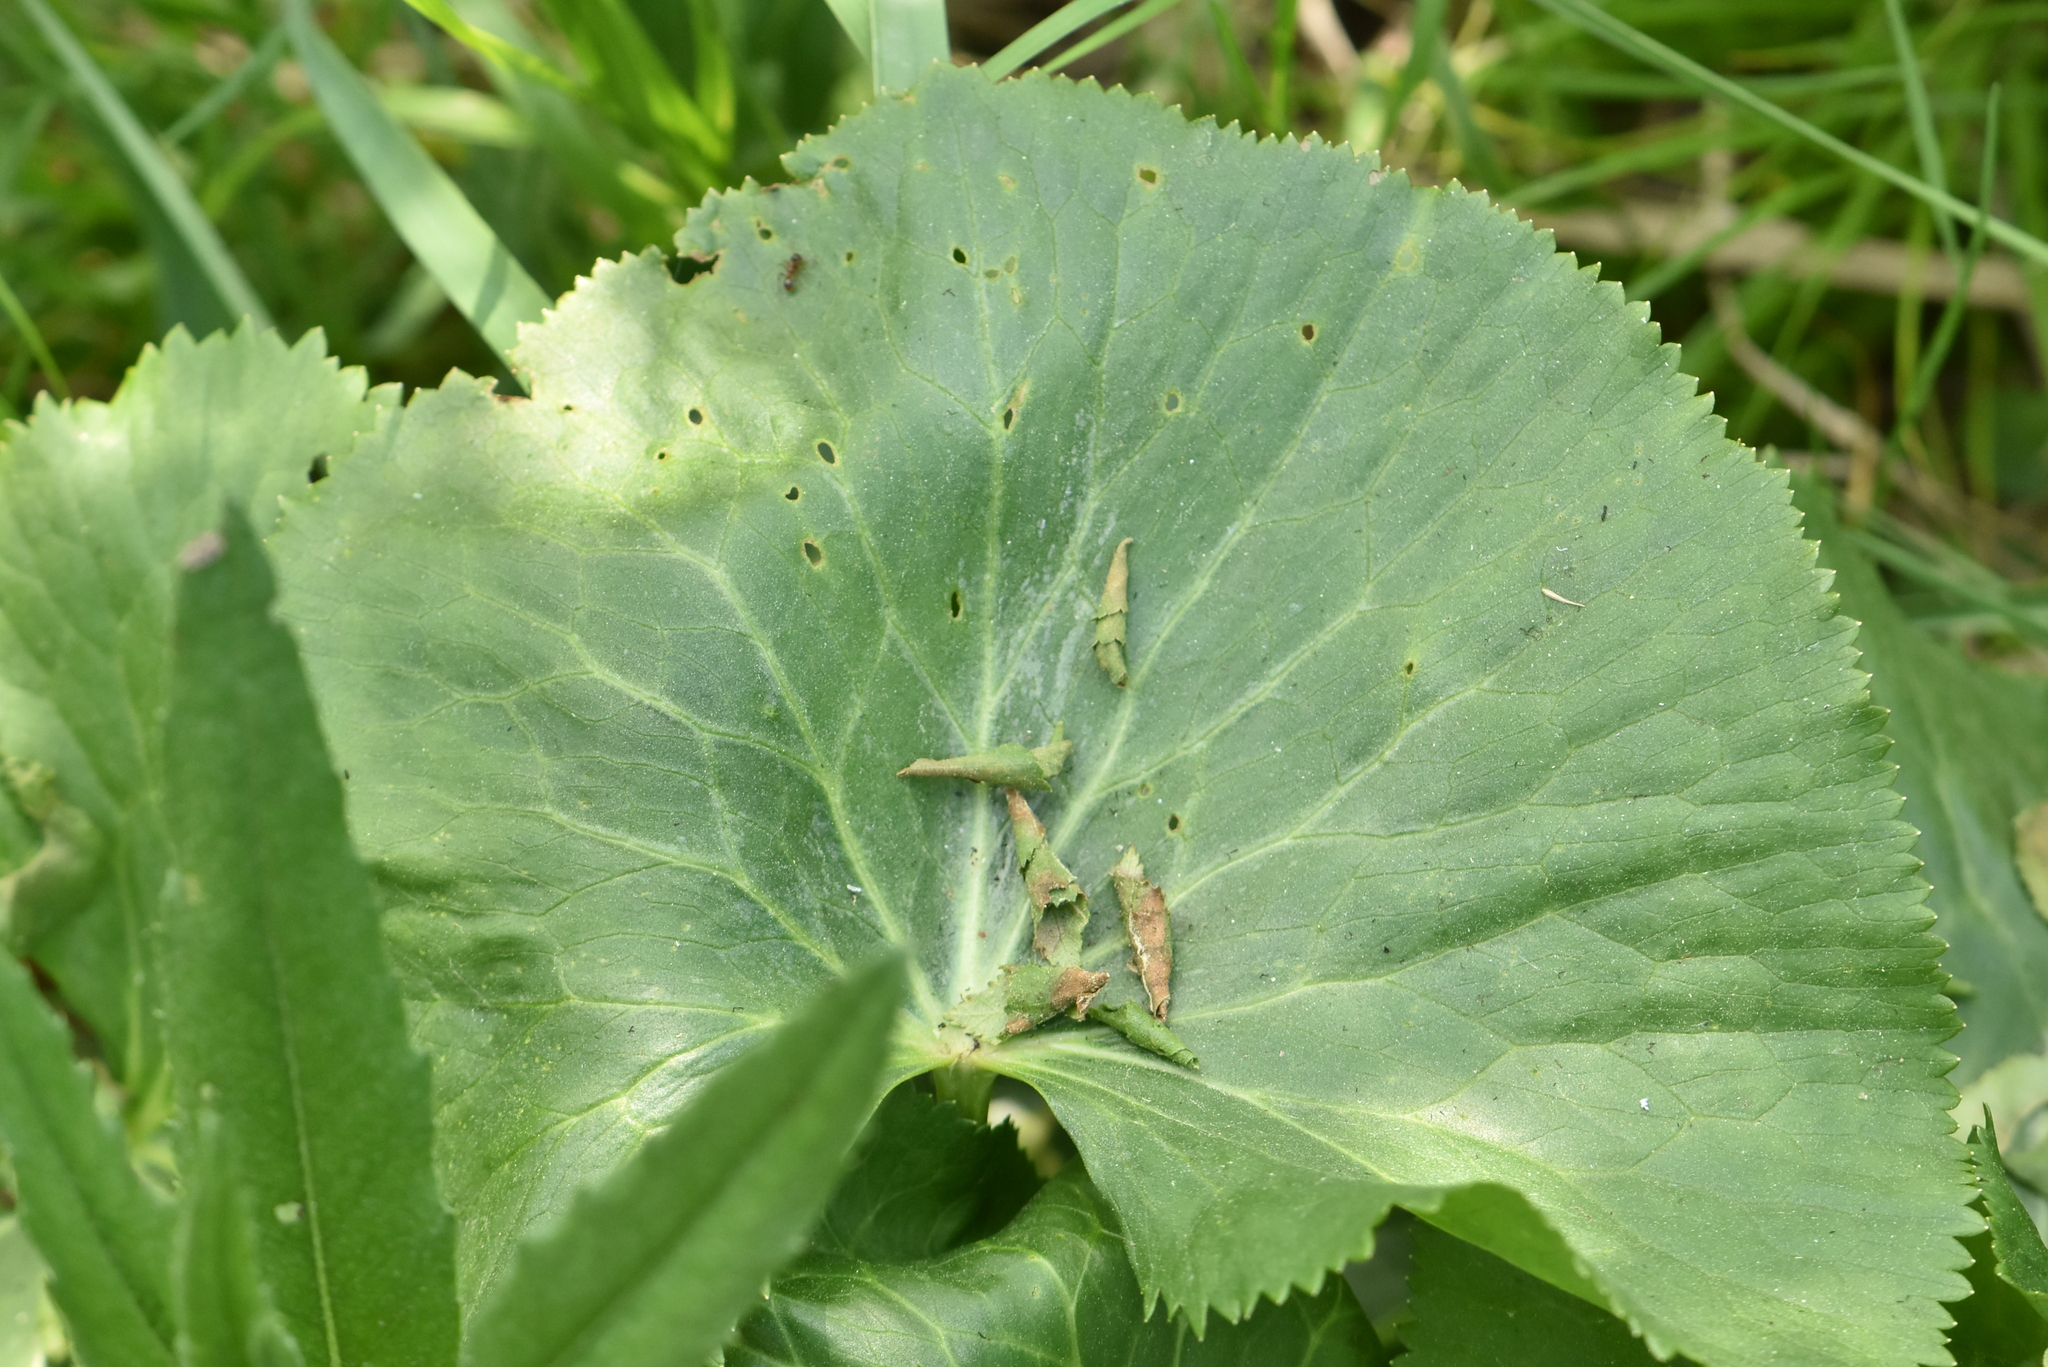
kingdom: Plantae
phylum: Tracheophyta
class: Magnoliopsida
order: Ranunculales
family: Ranunculaceae
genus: Caltha
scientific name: Caltha palustris
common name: Marsh marigold
